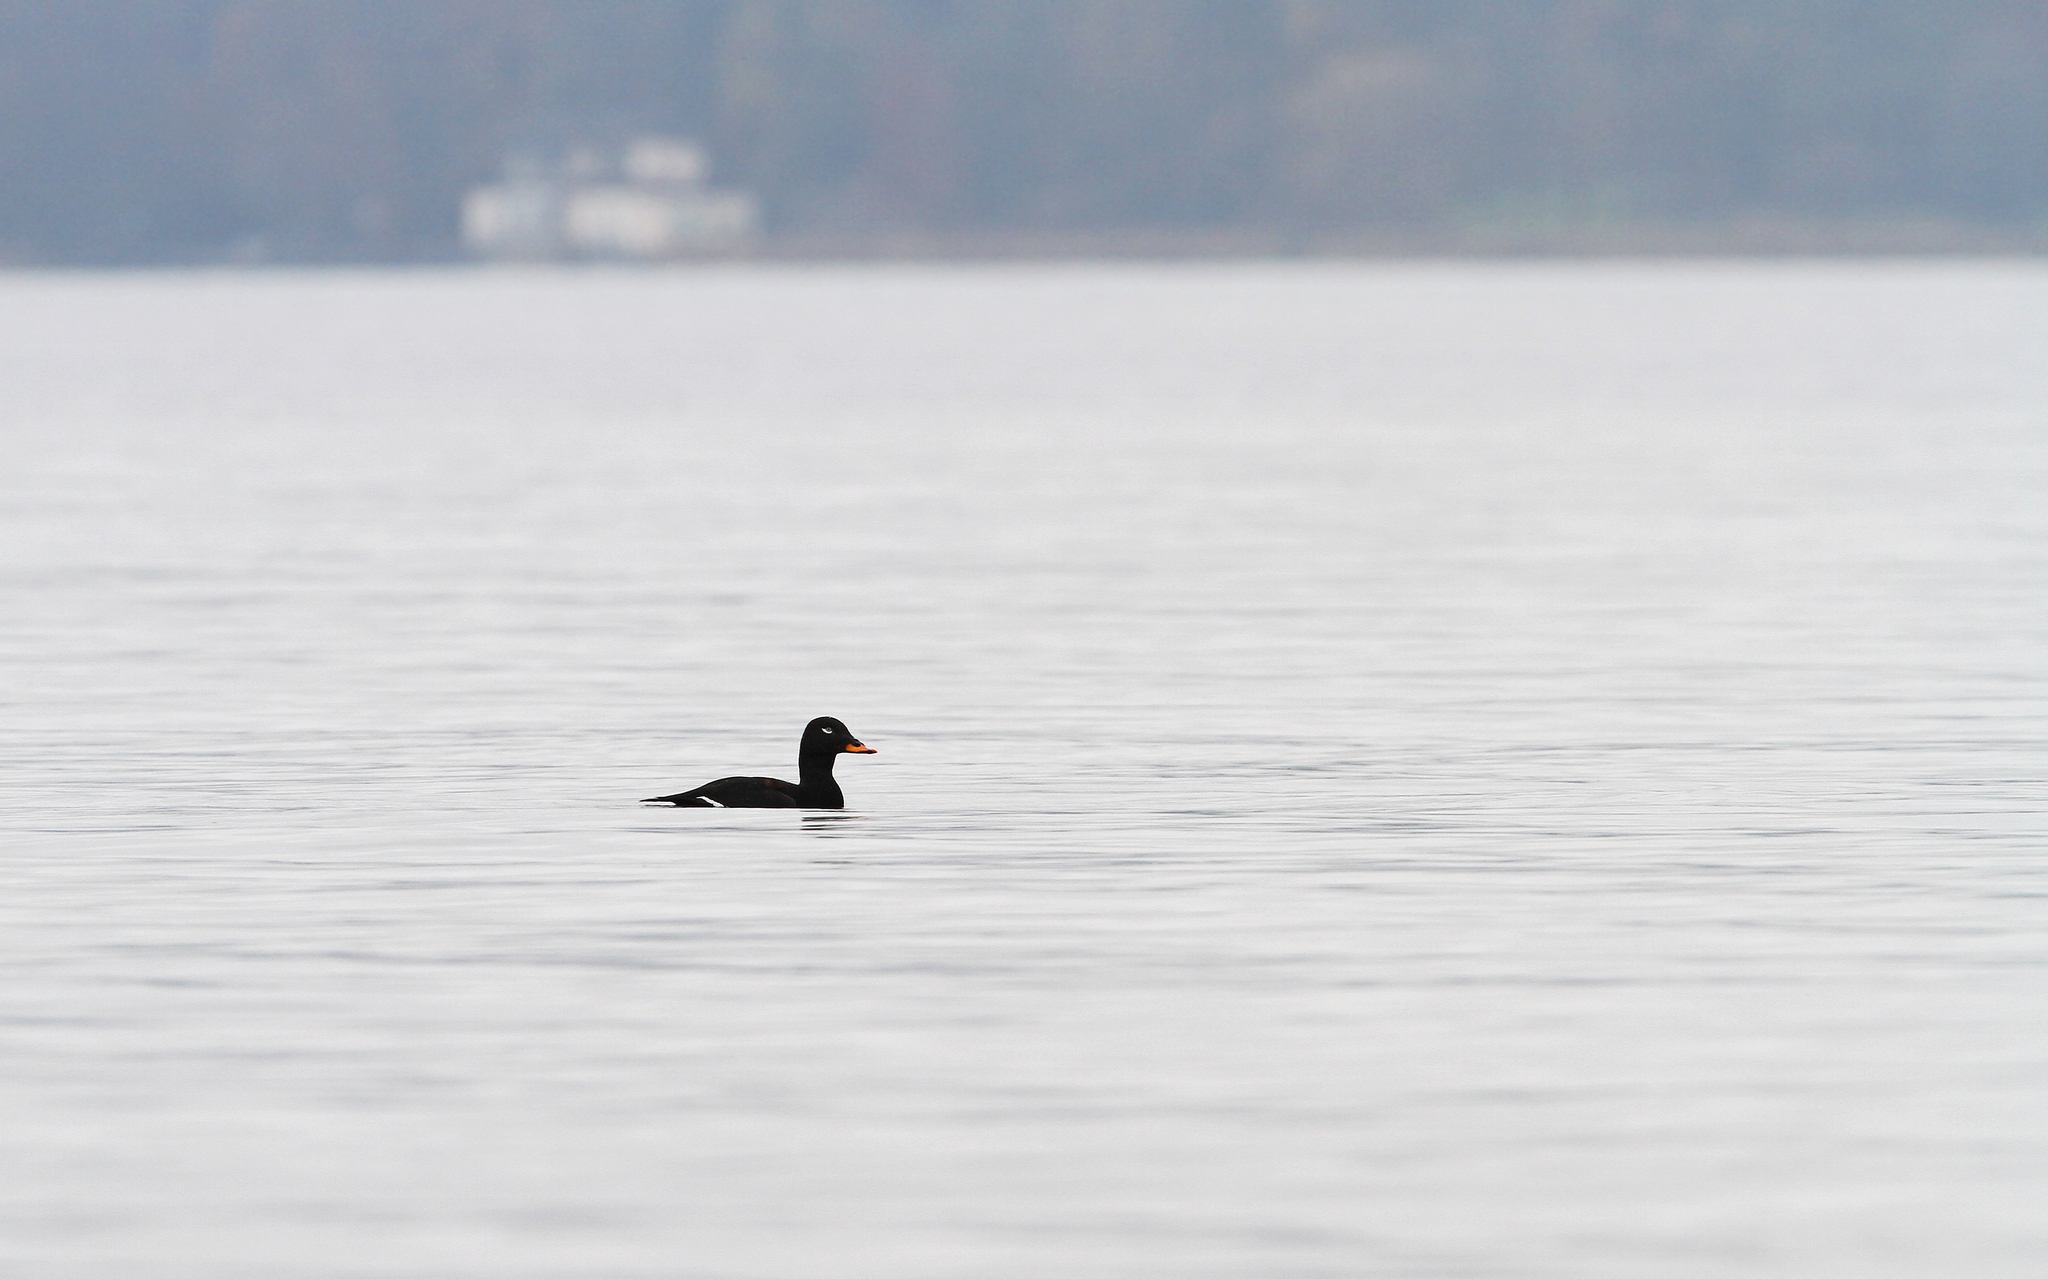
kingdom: Animalia
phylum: Chordata
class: Aves
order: Anseriformes
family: Anatidae
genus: Melanitta
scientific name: Melanitta fusca
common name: Velvet scoter
